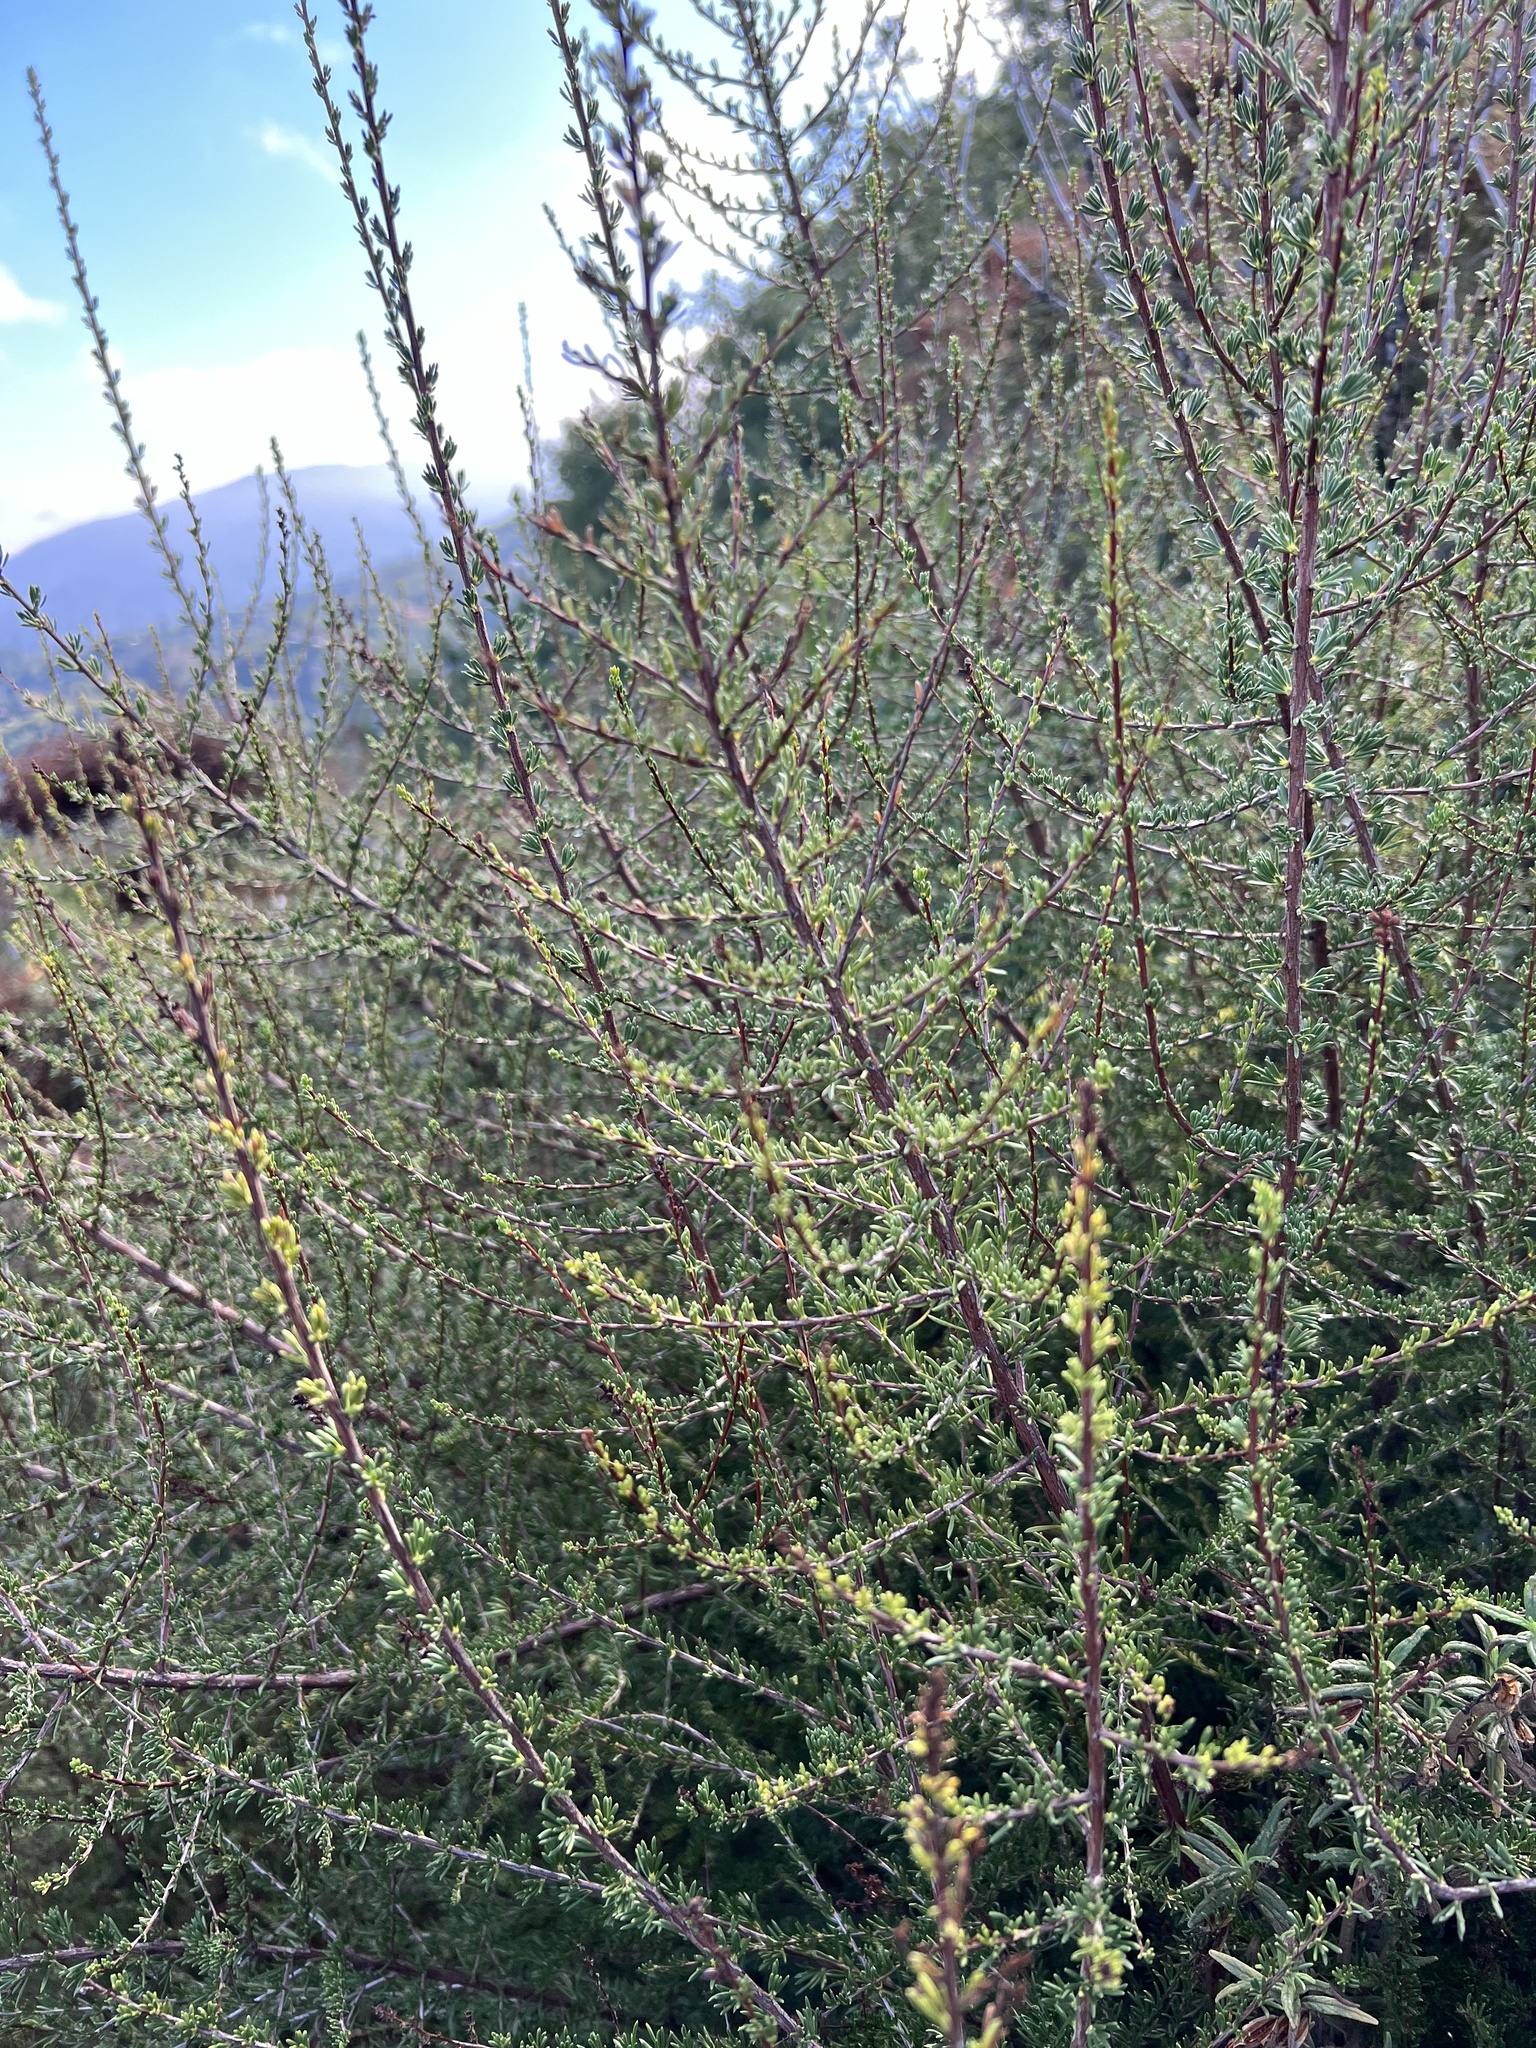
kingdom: Plantae
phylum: Tracheophyta
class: Magnoliopsida
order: Rosales
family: Rosaceae
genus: Adenostoma
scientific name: Adenostoma fasciculatum
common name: Chamise
